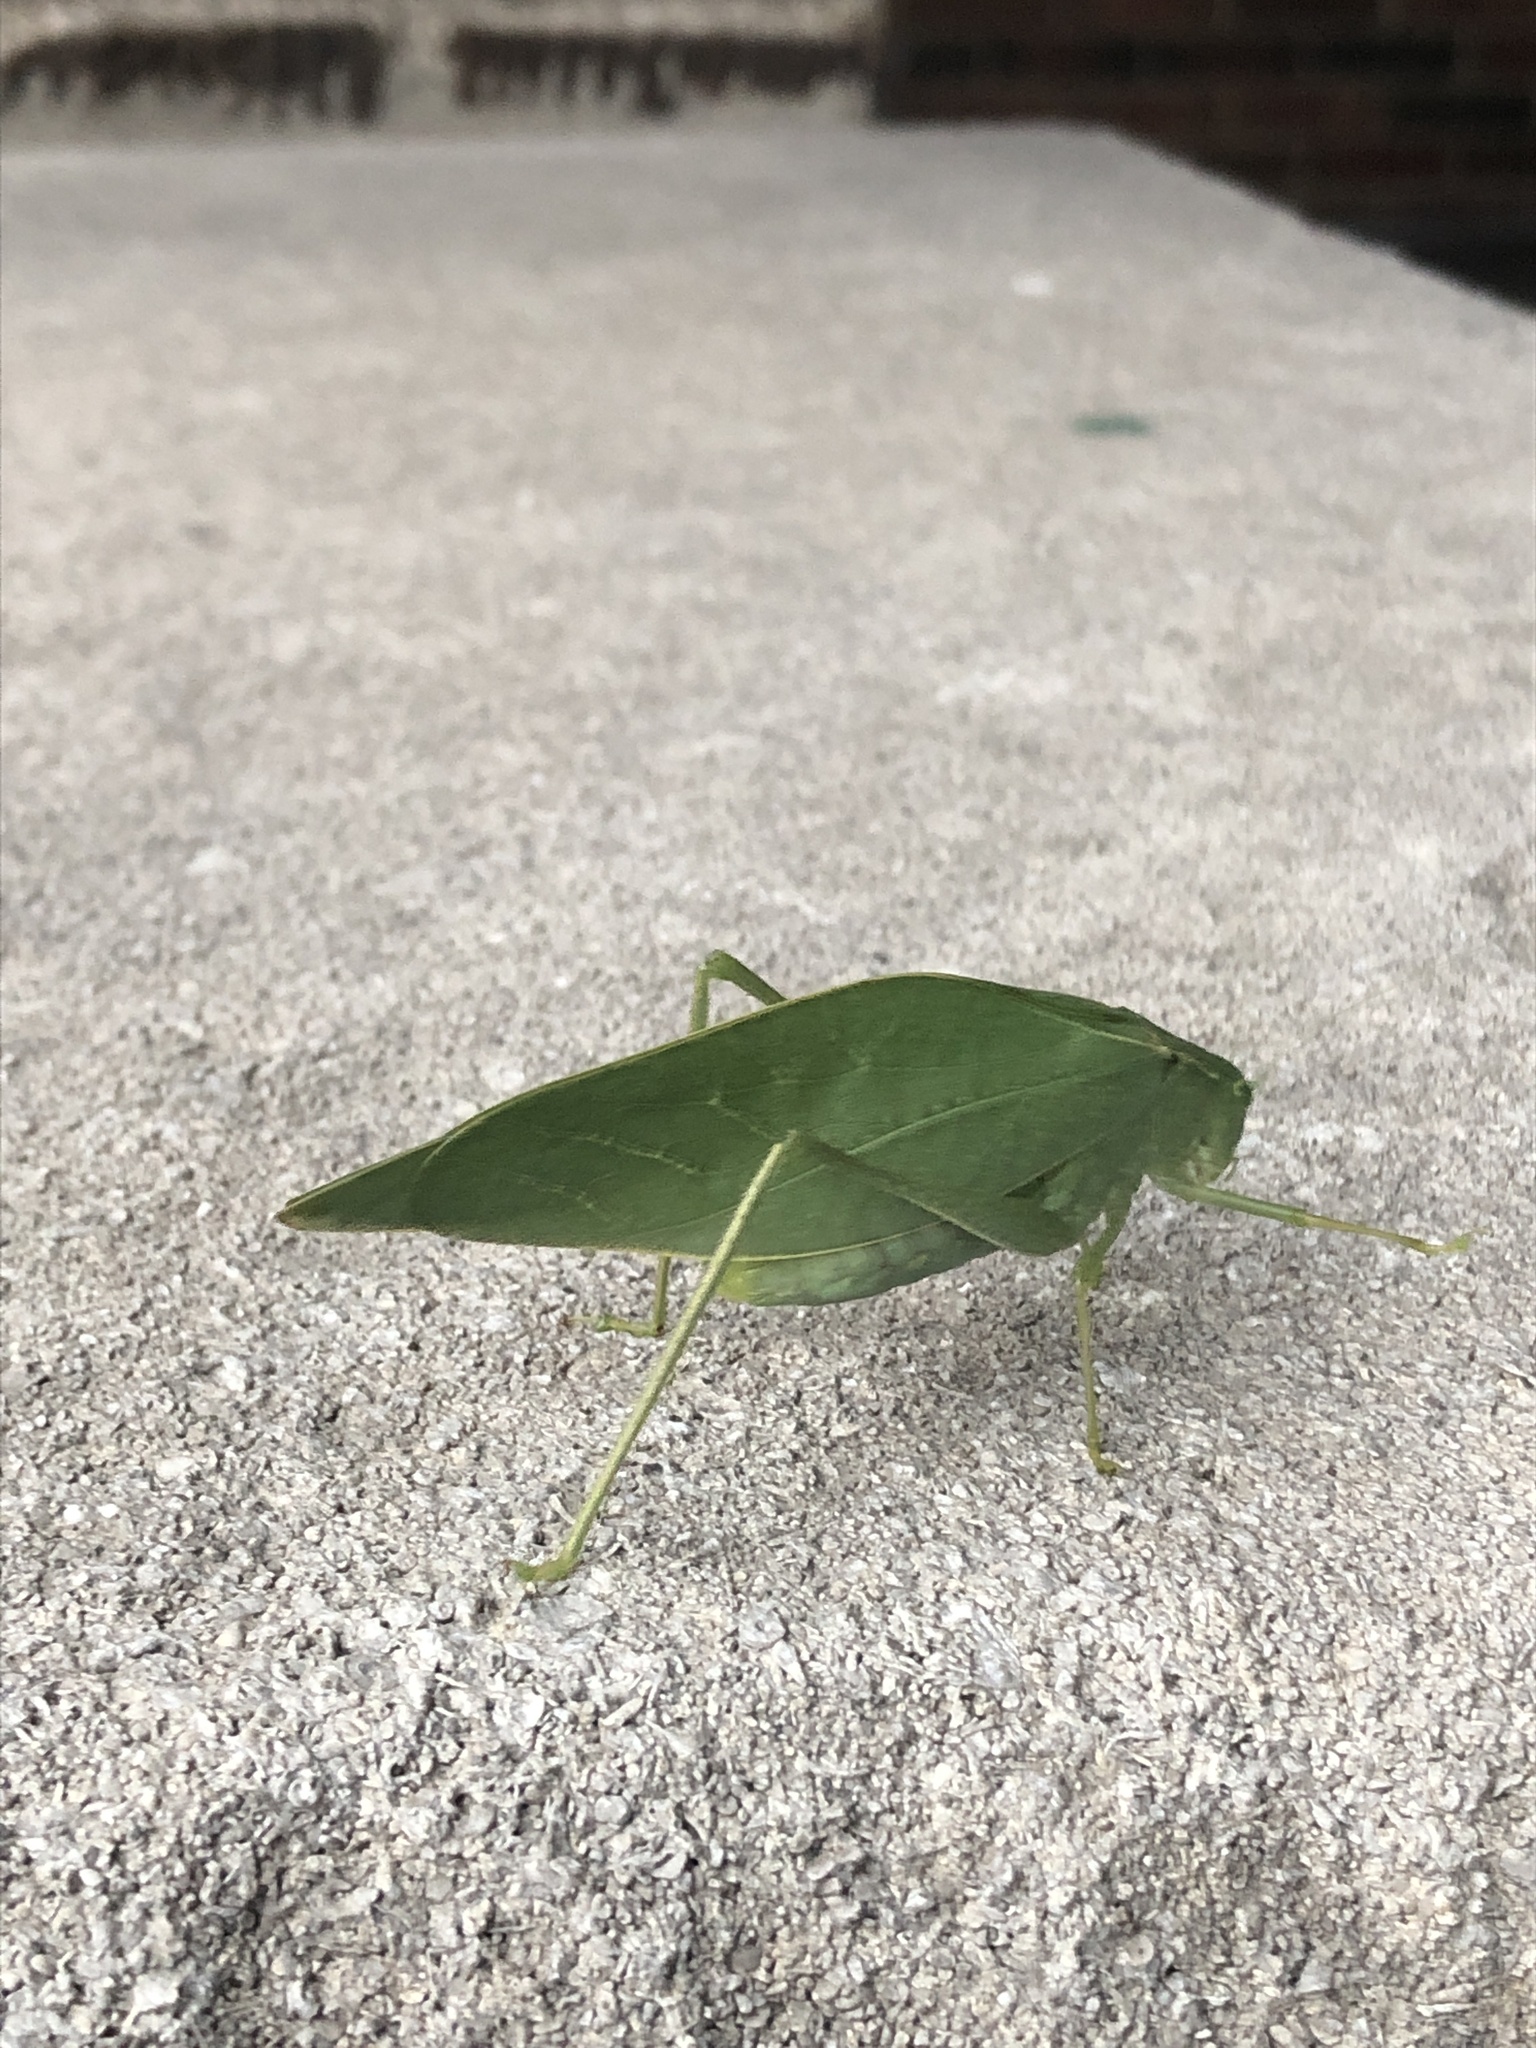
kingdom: Animalia
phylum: Arthropoda
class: Insecta
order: Orthoptera
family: Tettigoniidae
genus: Microcentrum
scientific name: Microcentrum rhombifolium
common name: Broad-winged katydid
